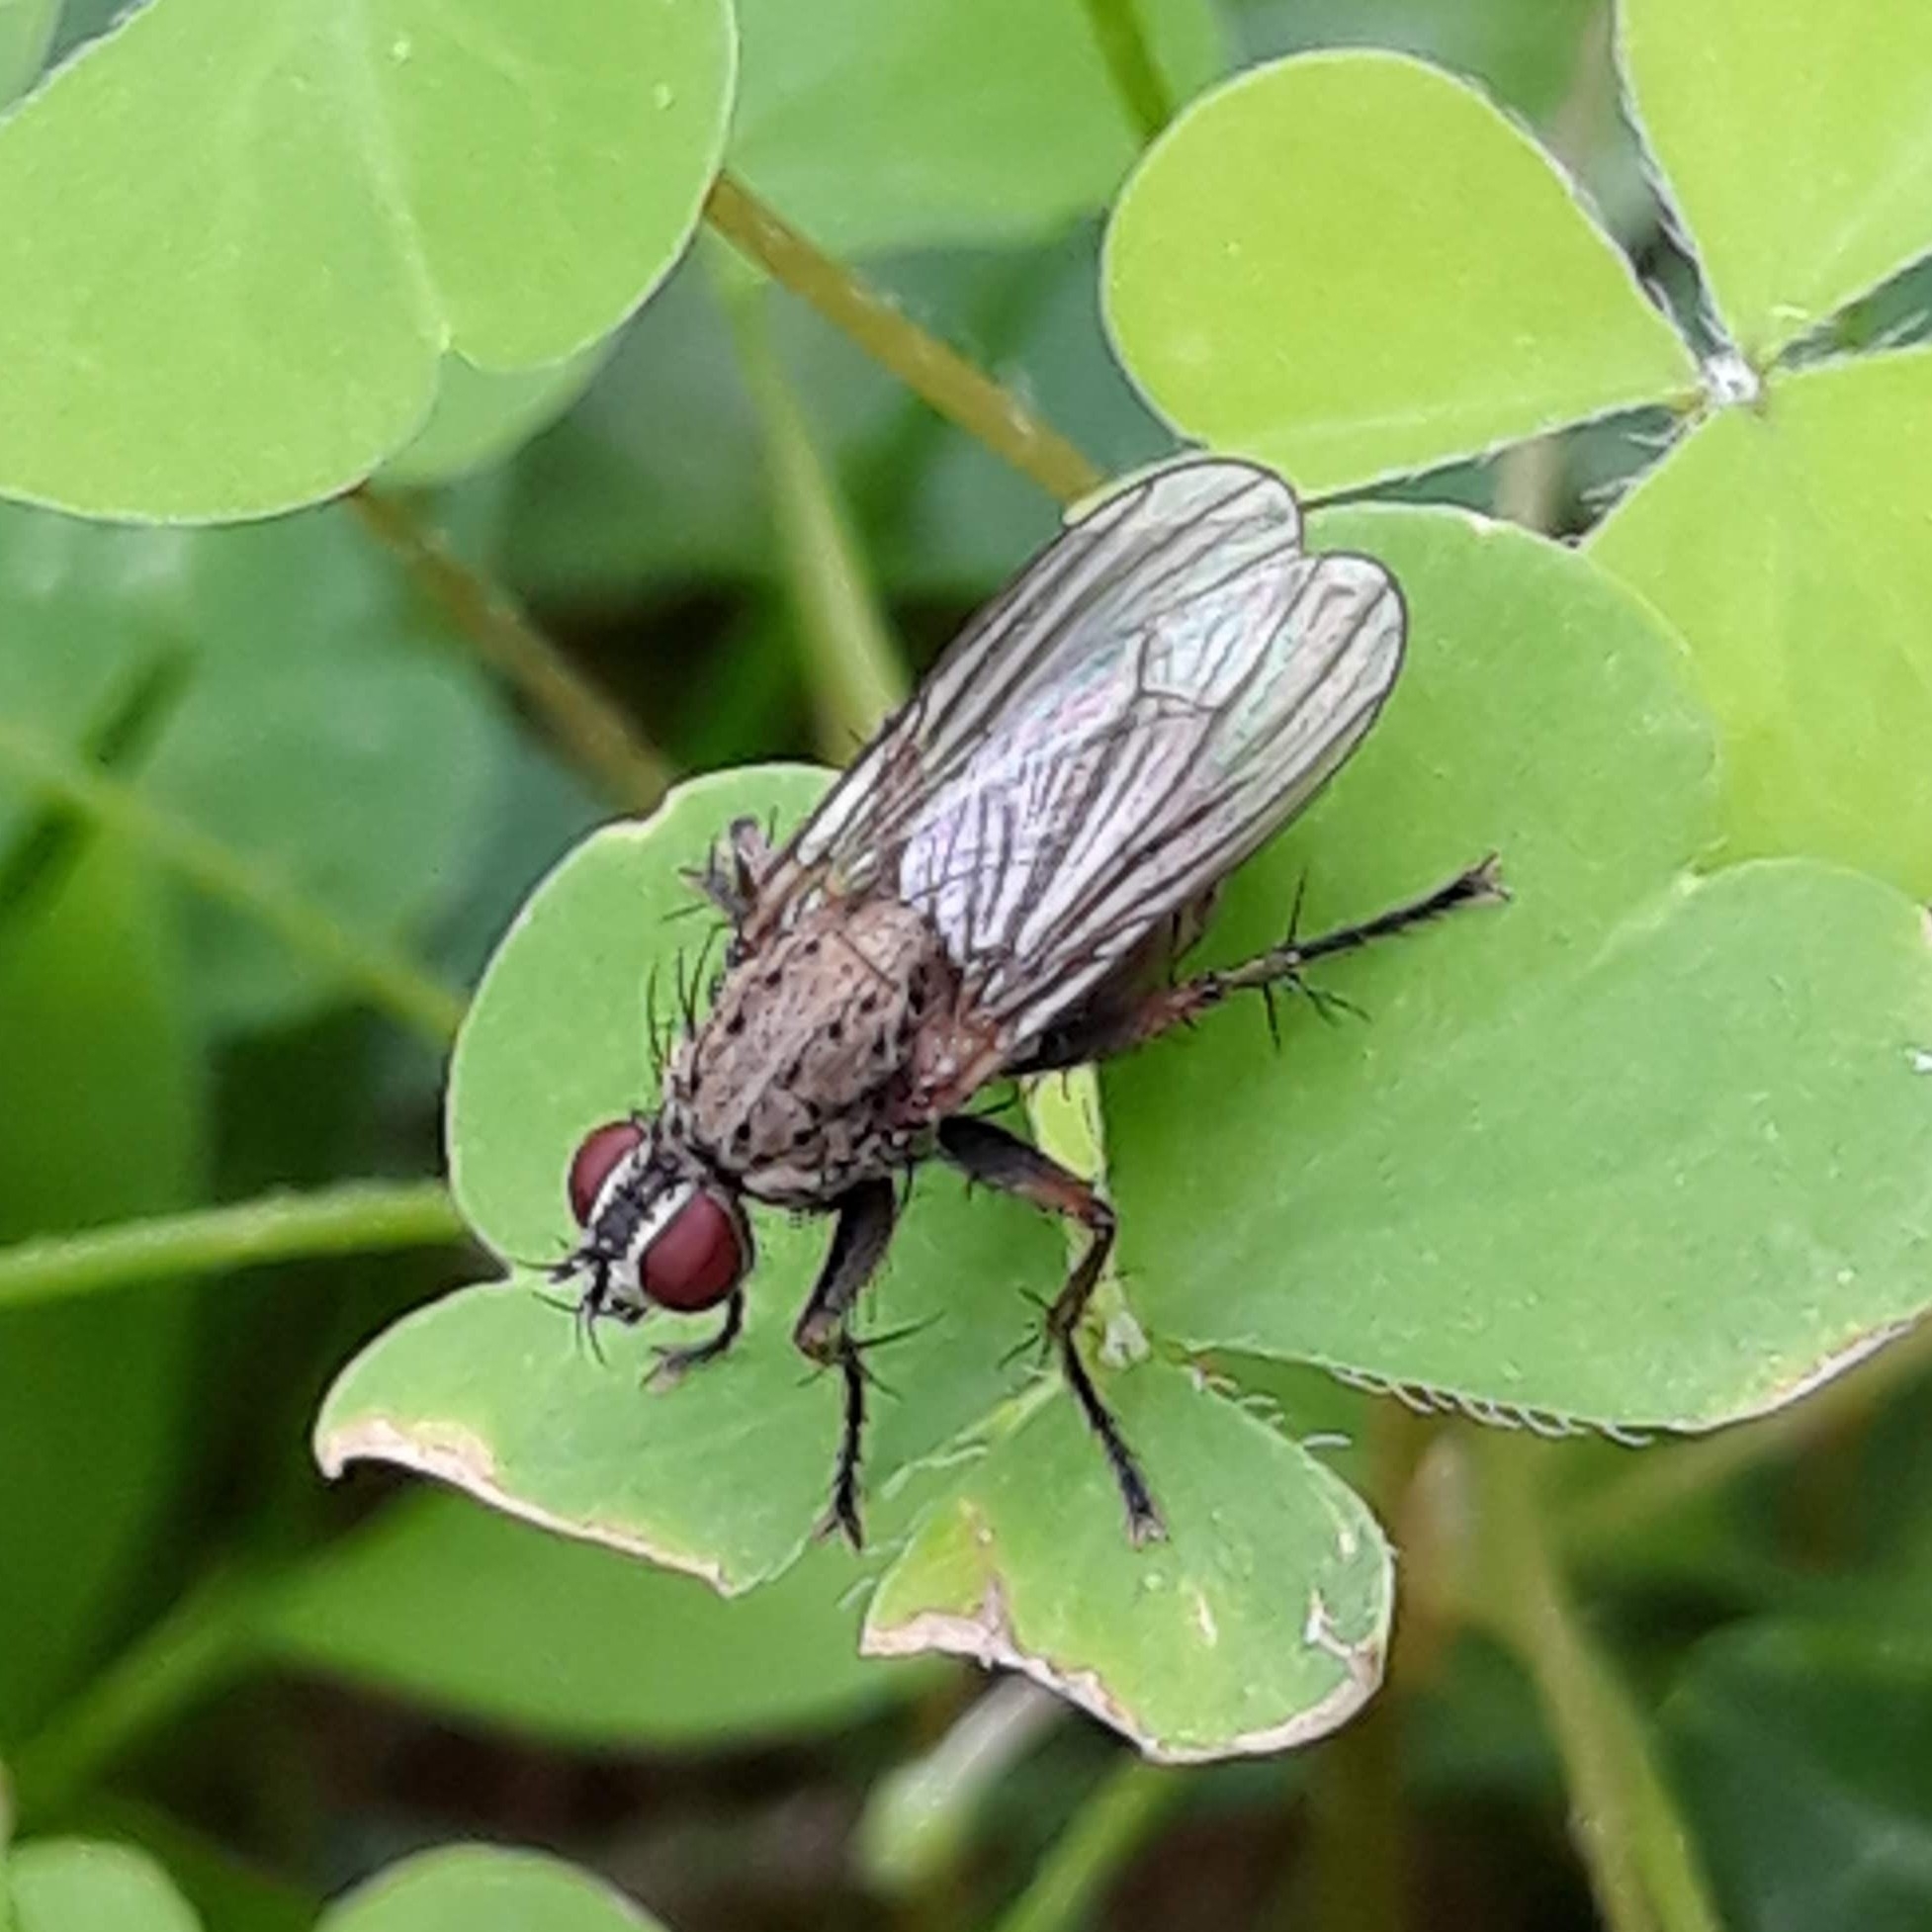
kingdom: Animalia
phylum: Arthropoda
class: Insecta
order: Diptera
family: Muscidae
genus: Coenosia
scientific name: Coenosia tigrina
